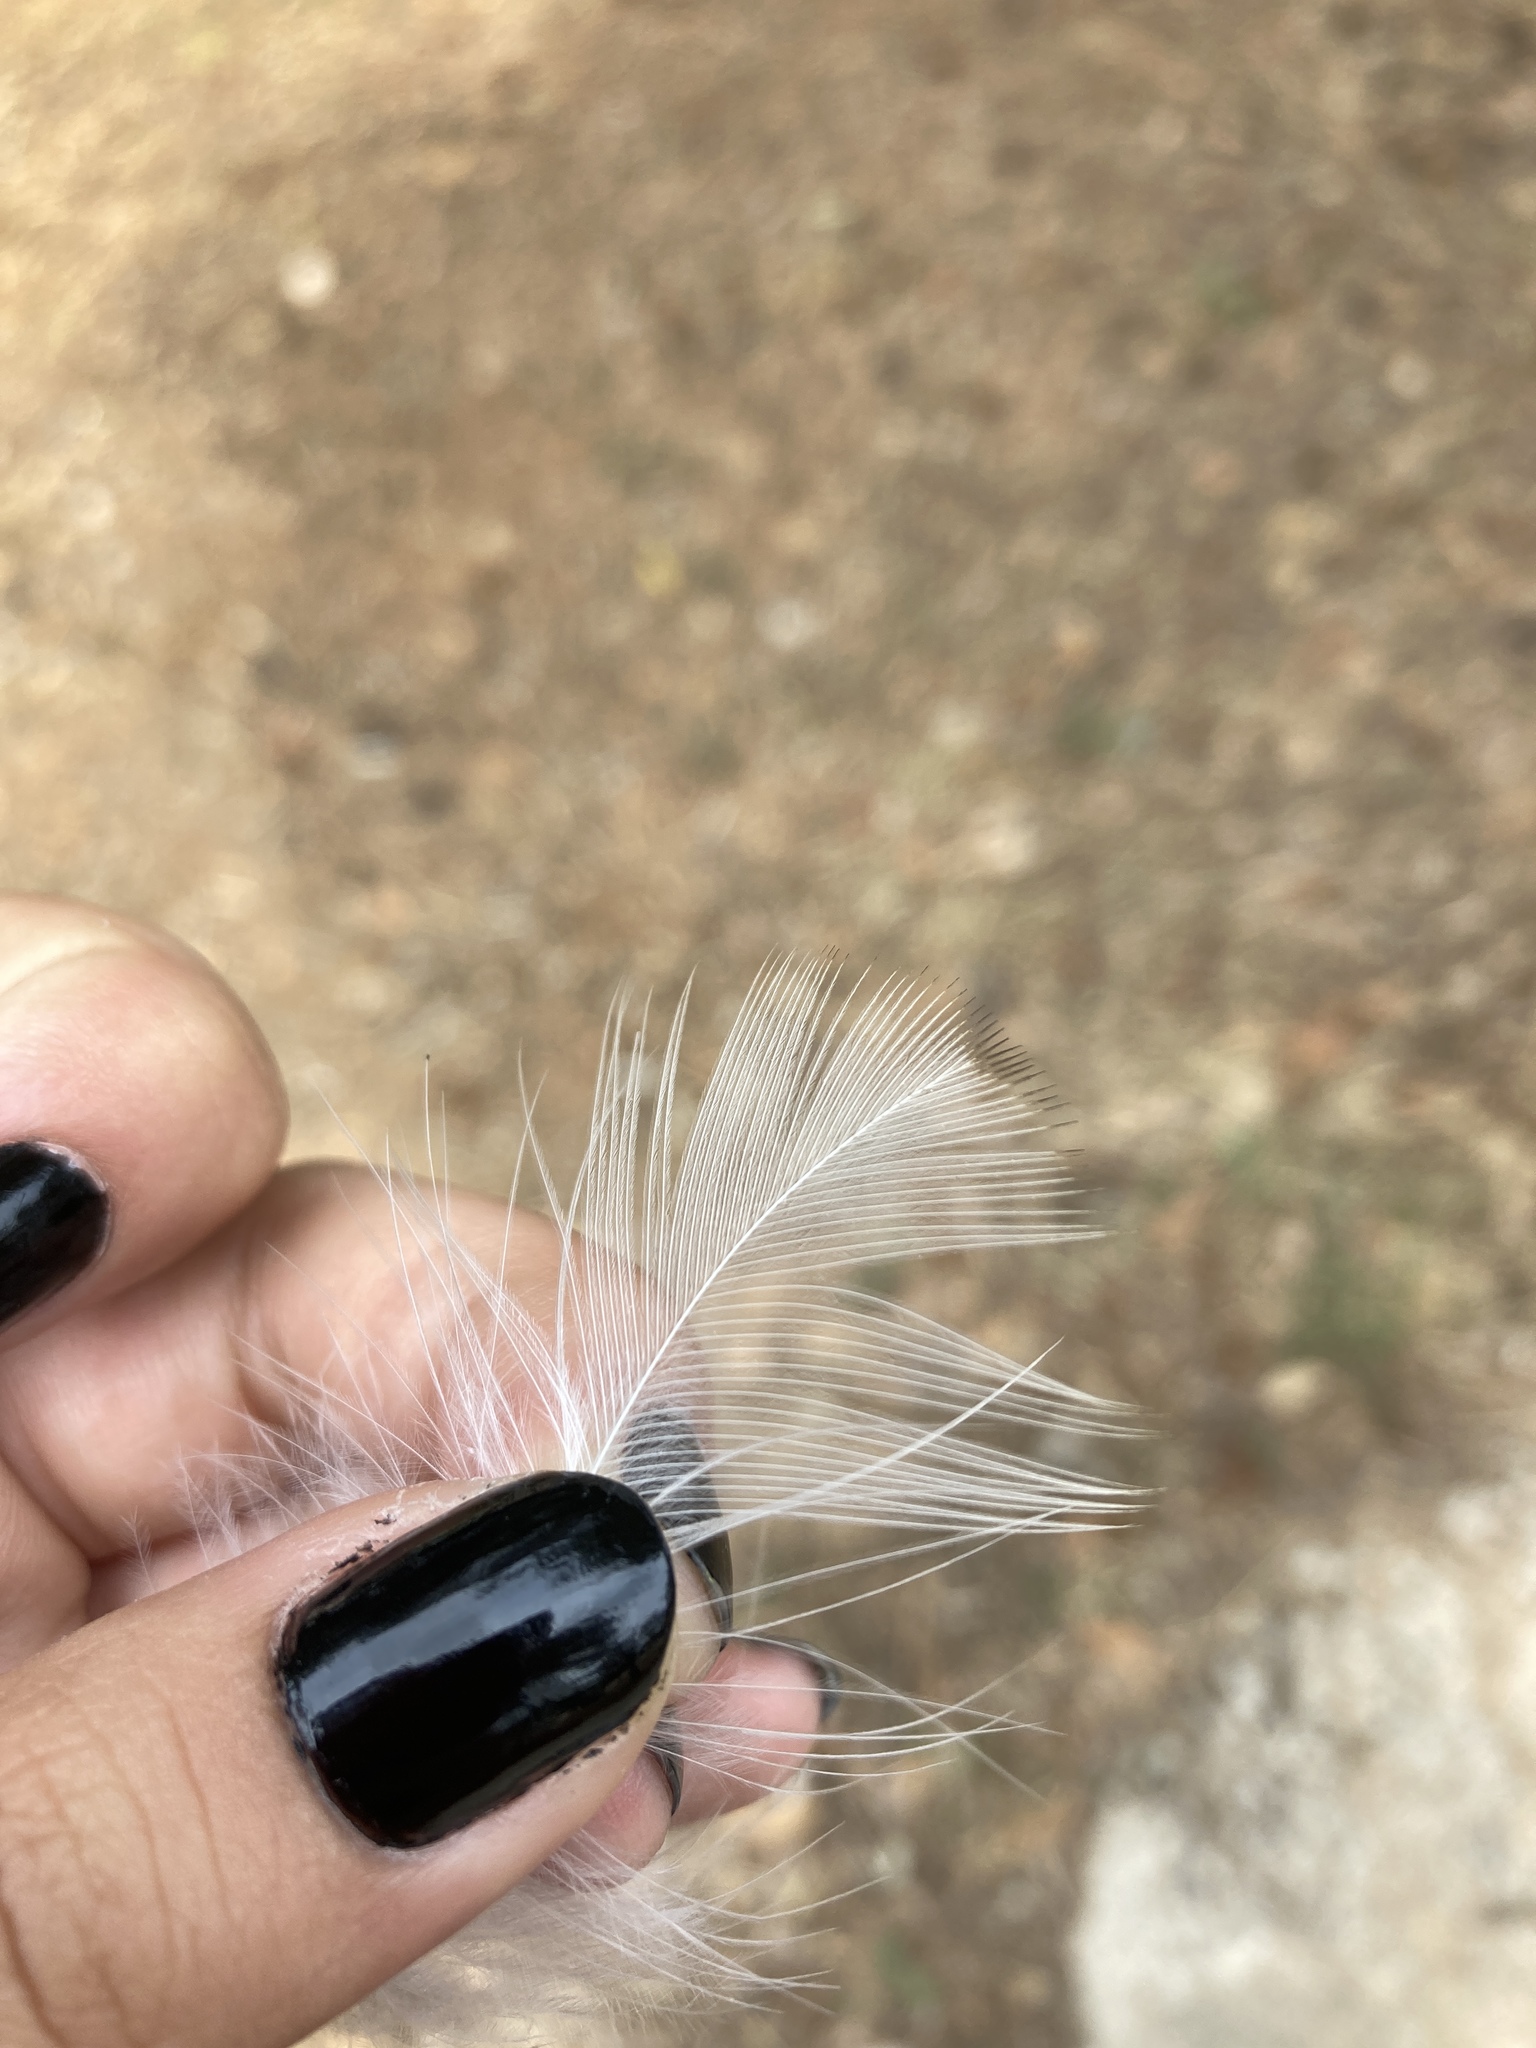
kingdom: Animalia
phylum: Chordata
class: Aves
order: Passeriformes
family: Corvidae
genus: Pica
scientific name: Pica pica
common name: Eurasian magpie
